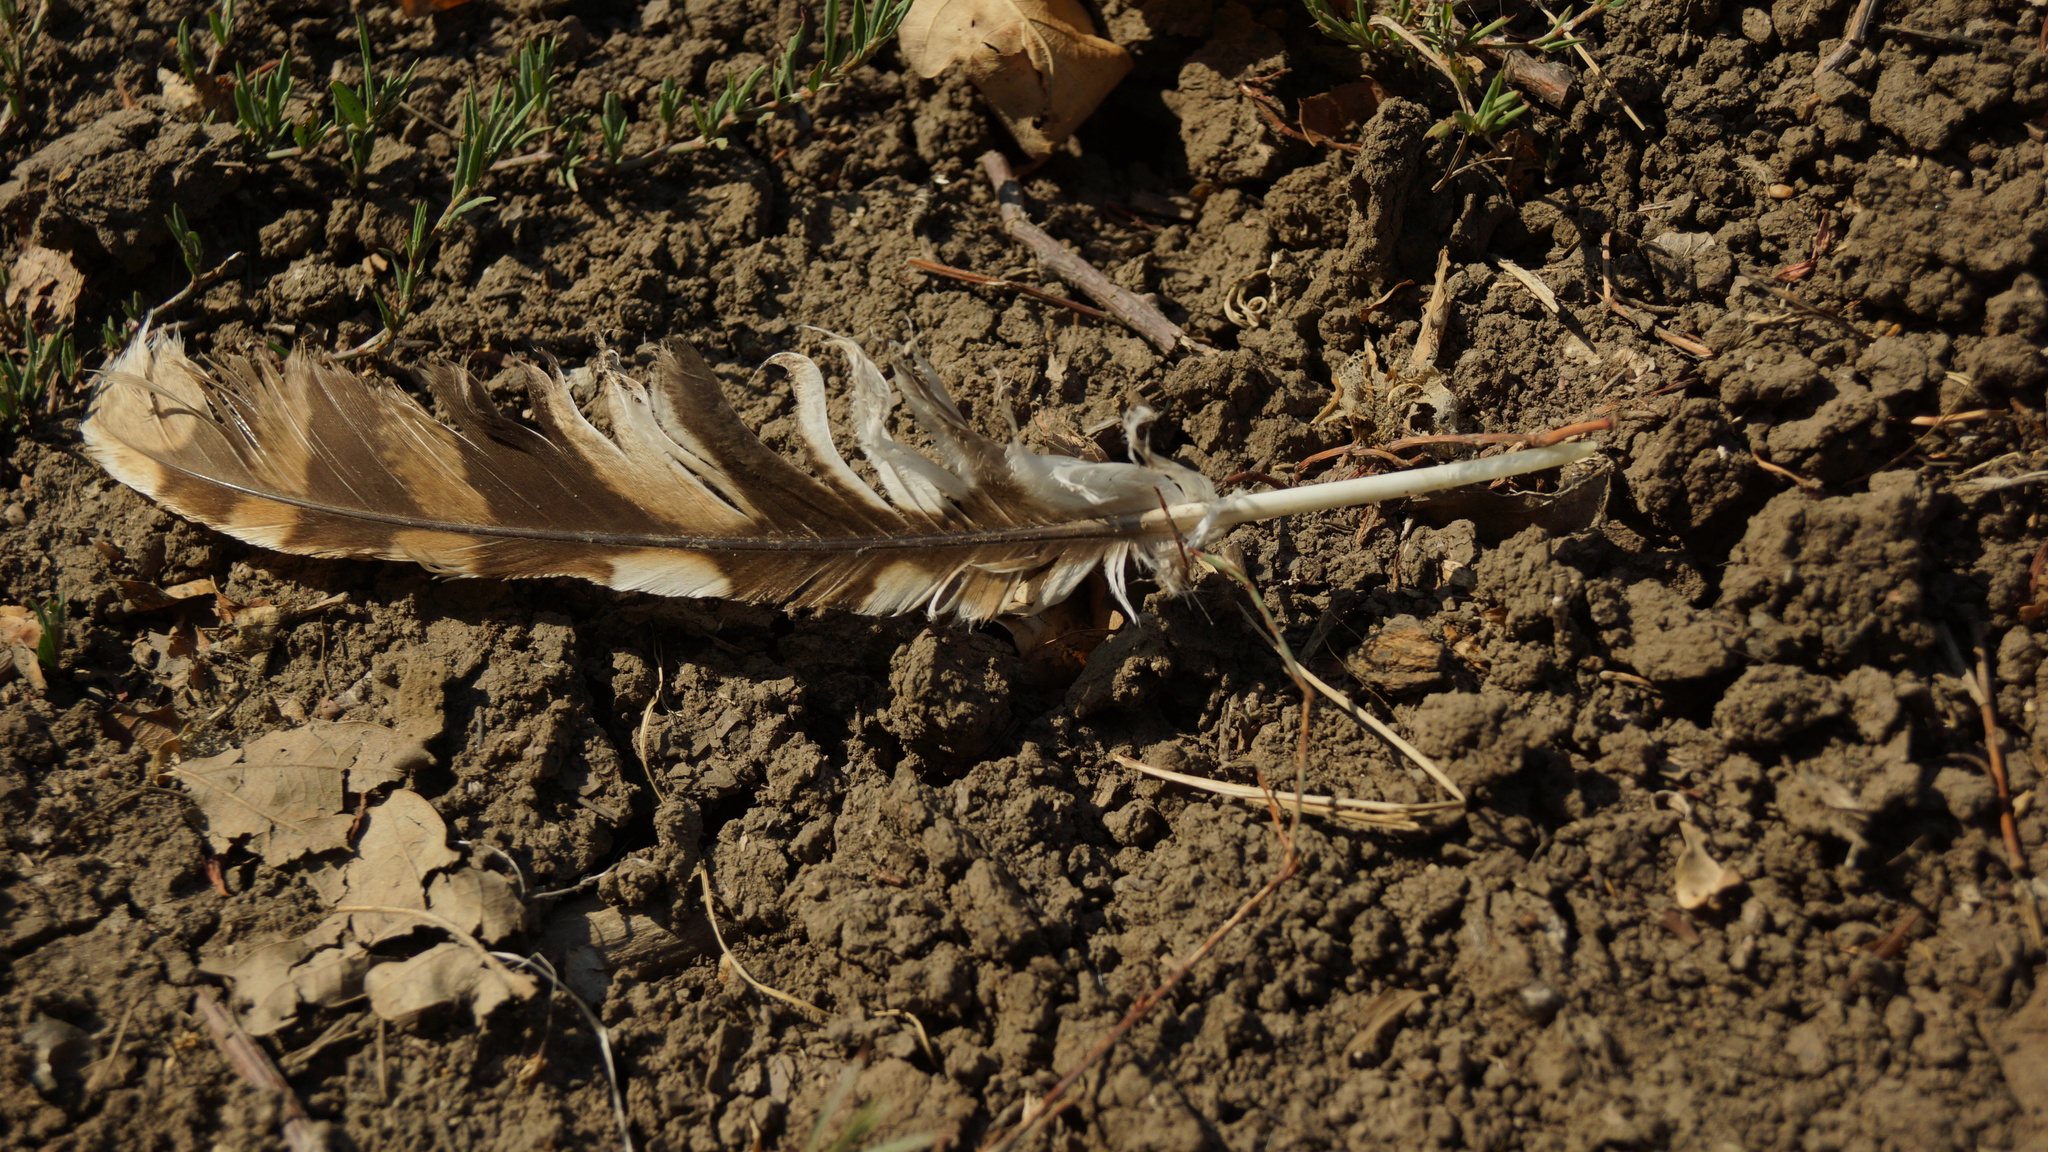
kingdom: Animalia
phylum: Chordata
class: Aves
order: Strigiformes
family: Strigidae
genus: Strix
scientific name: Strix aluco
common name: Tawny owl
